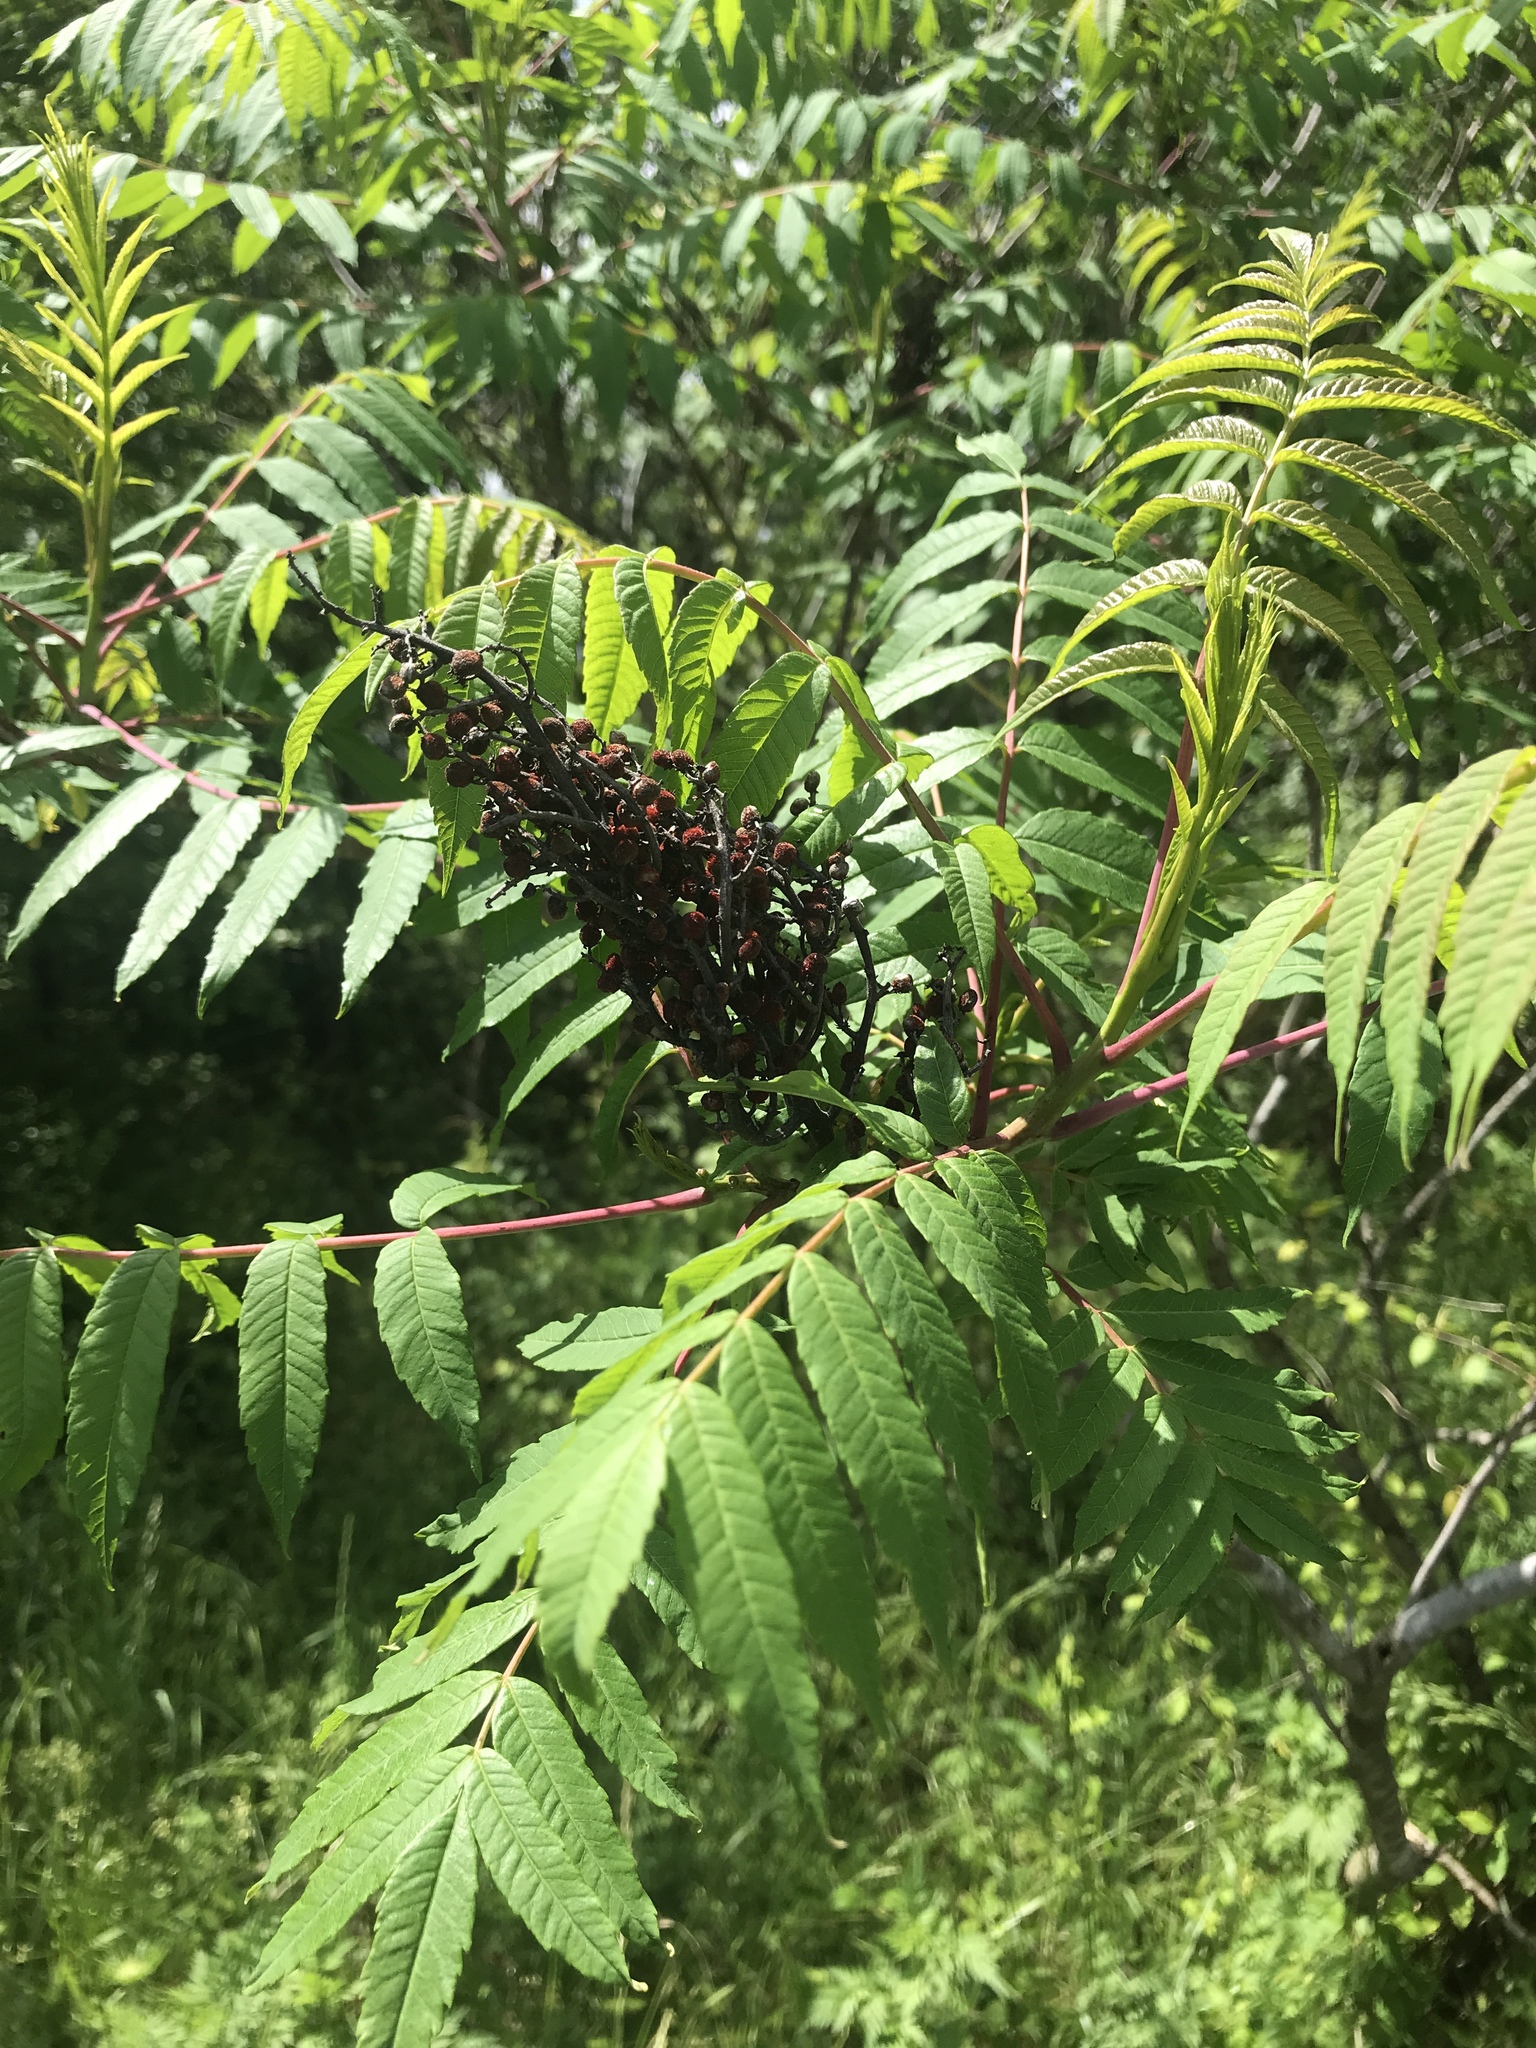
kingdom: Plantae
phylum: Tracheophyta
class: Magnoliopsida
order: Sapindales
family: Anacardiaceae
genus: Rhus
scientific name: Rhus glabra
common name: Scarlet sumac
